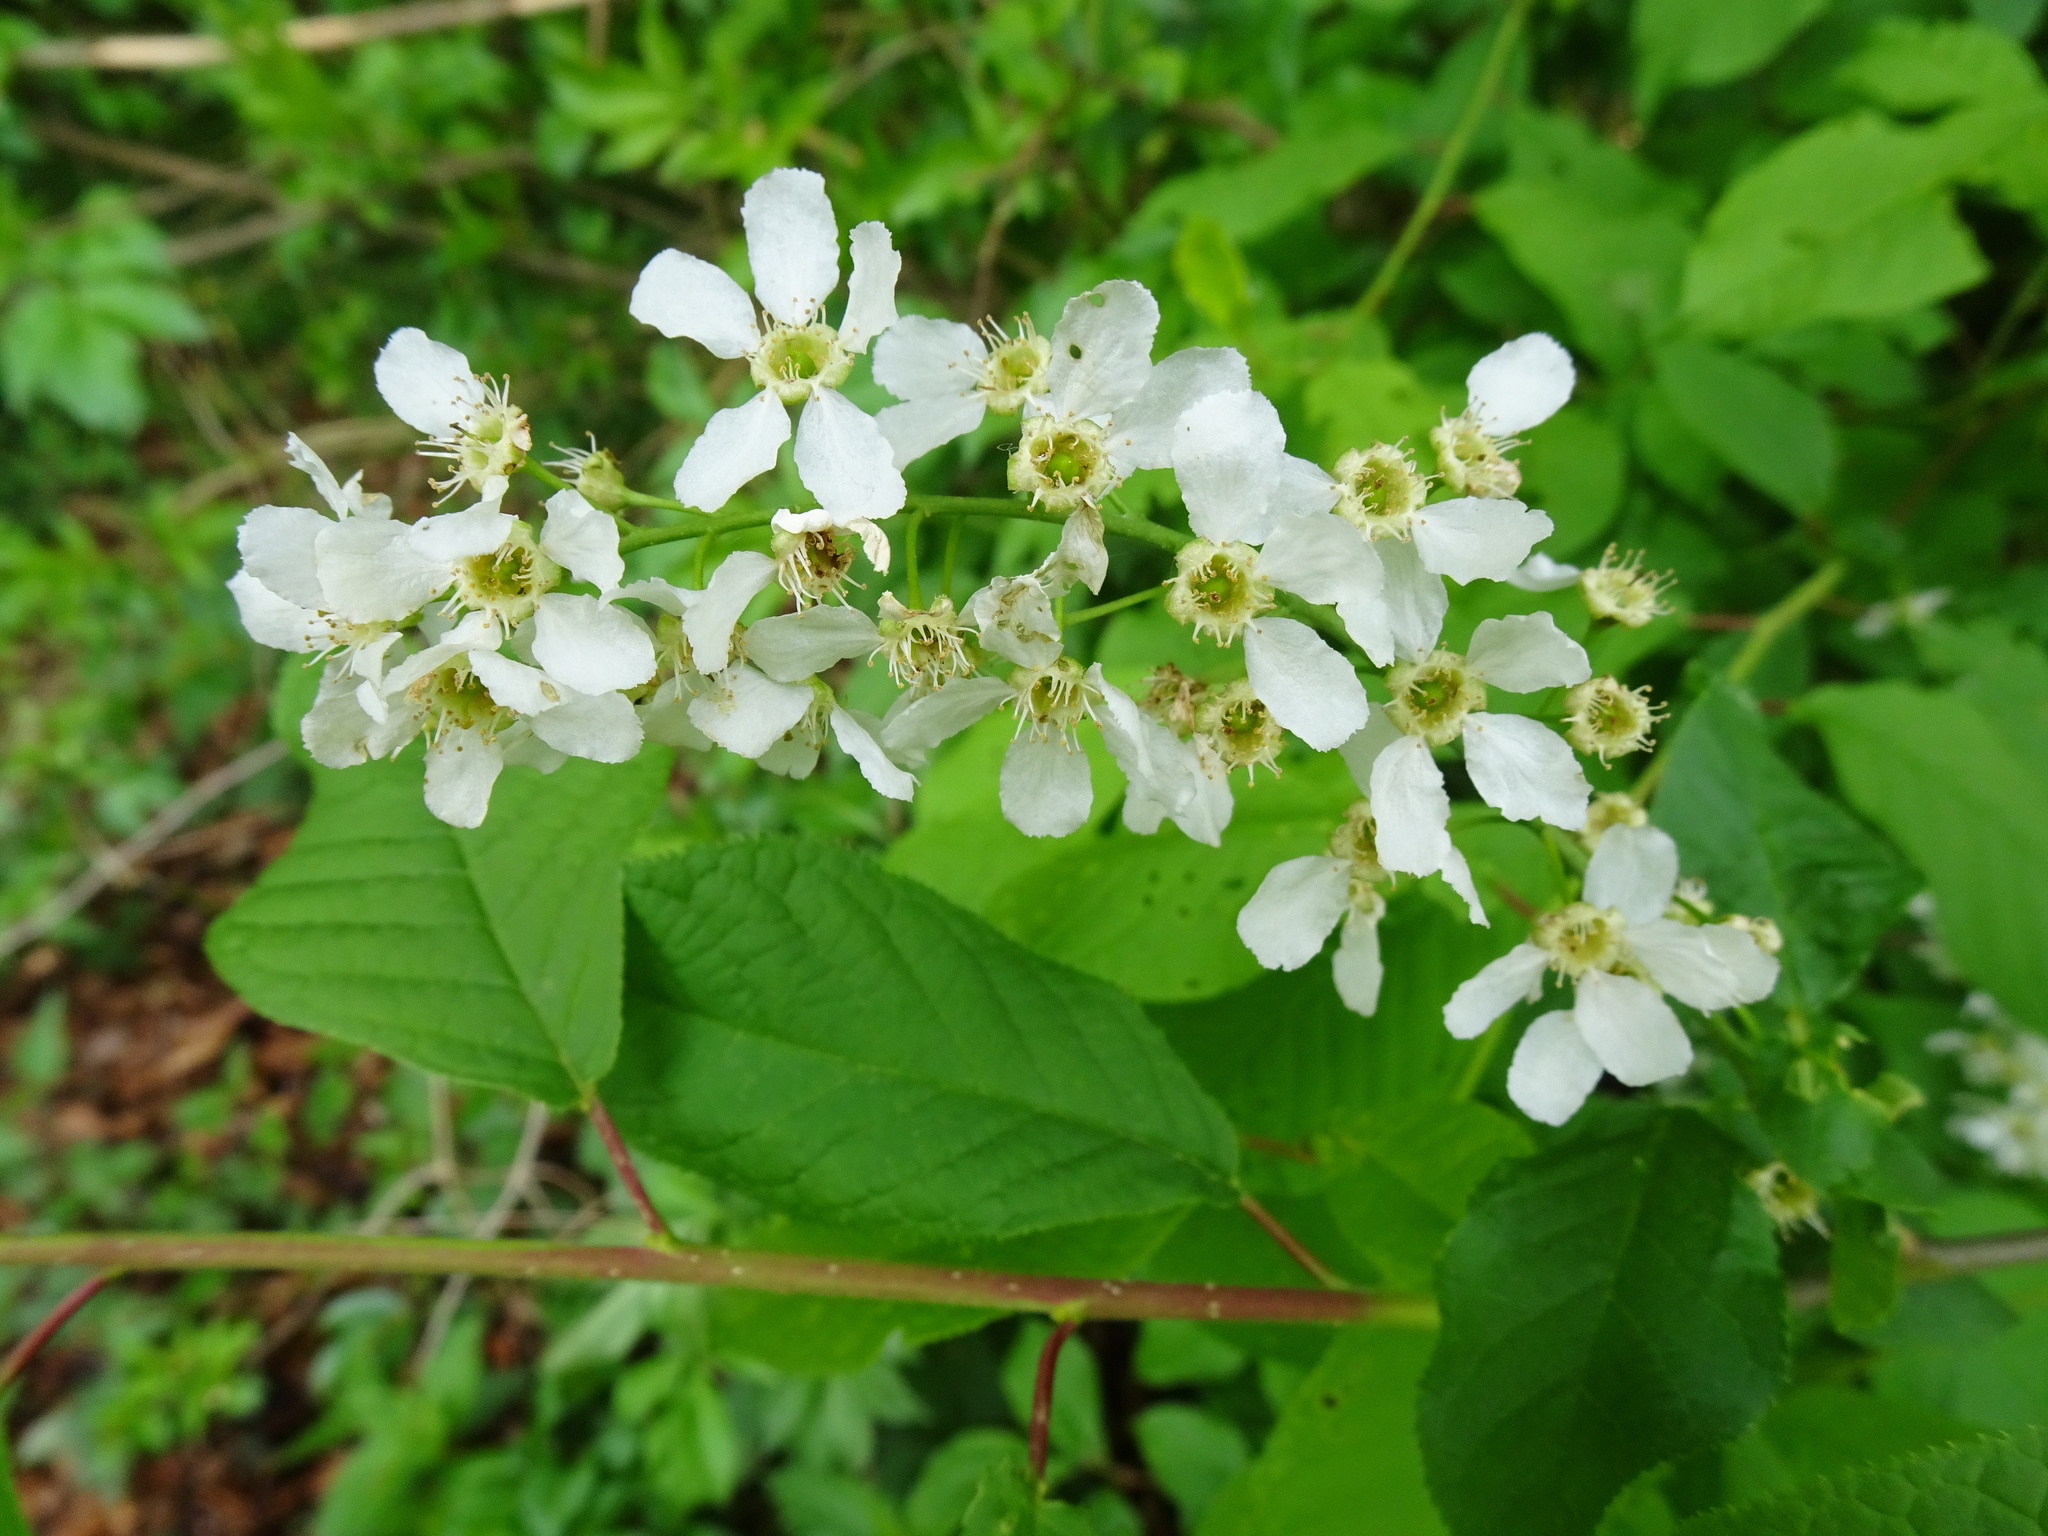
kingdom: Plantae
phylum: Tracheophyta
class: Magnoliopsida
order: Rosales
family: Rosaceae
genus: Prunus
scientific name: Prunus padus
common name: Bird cherry
